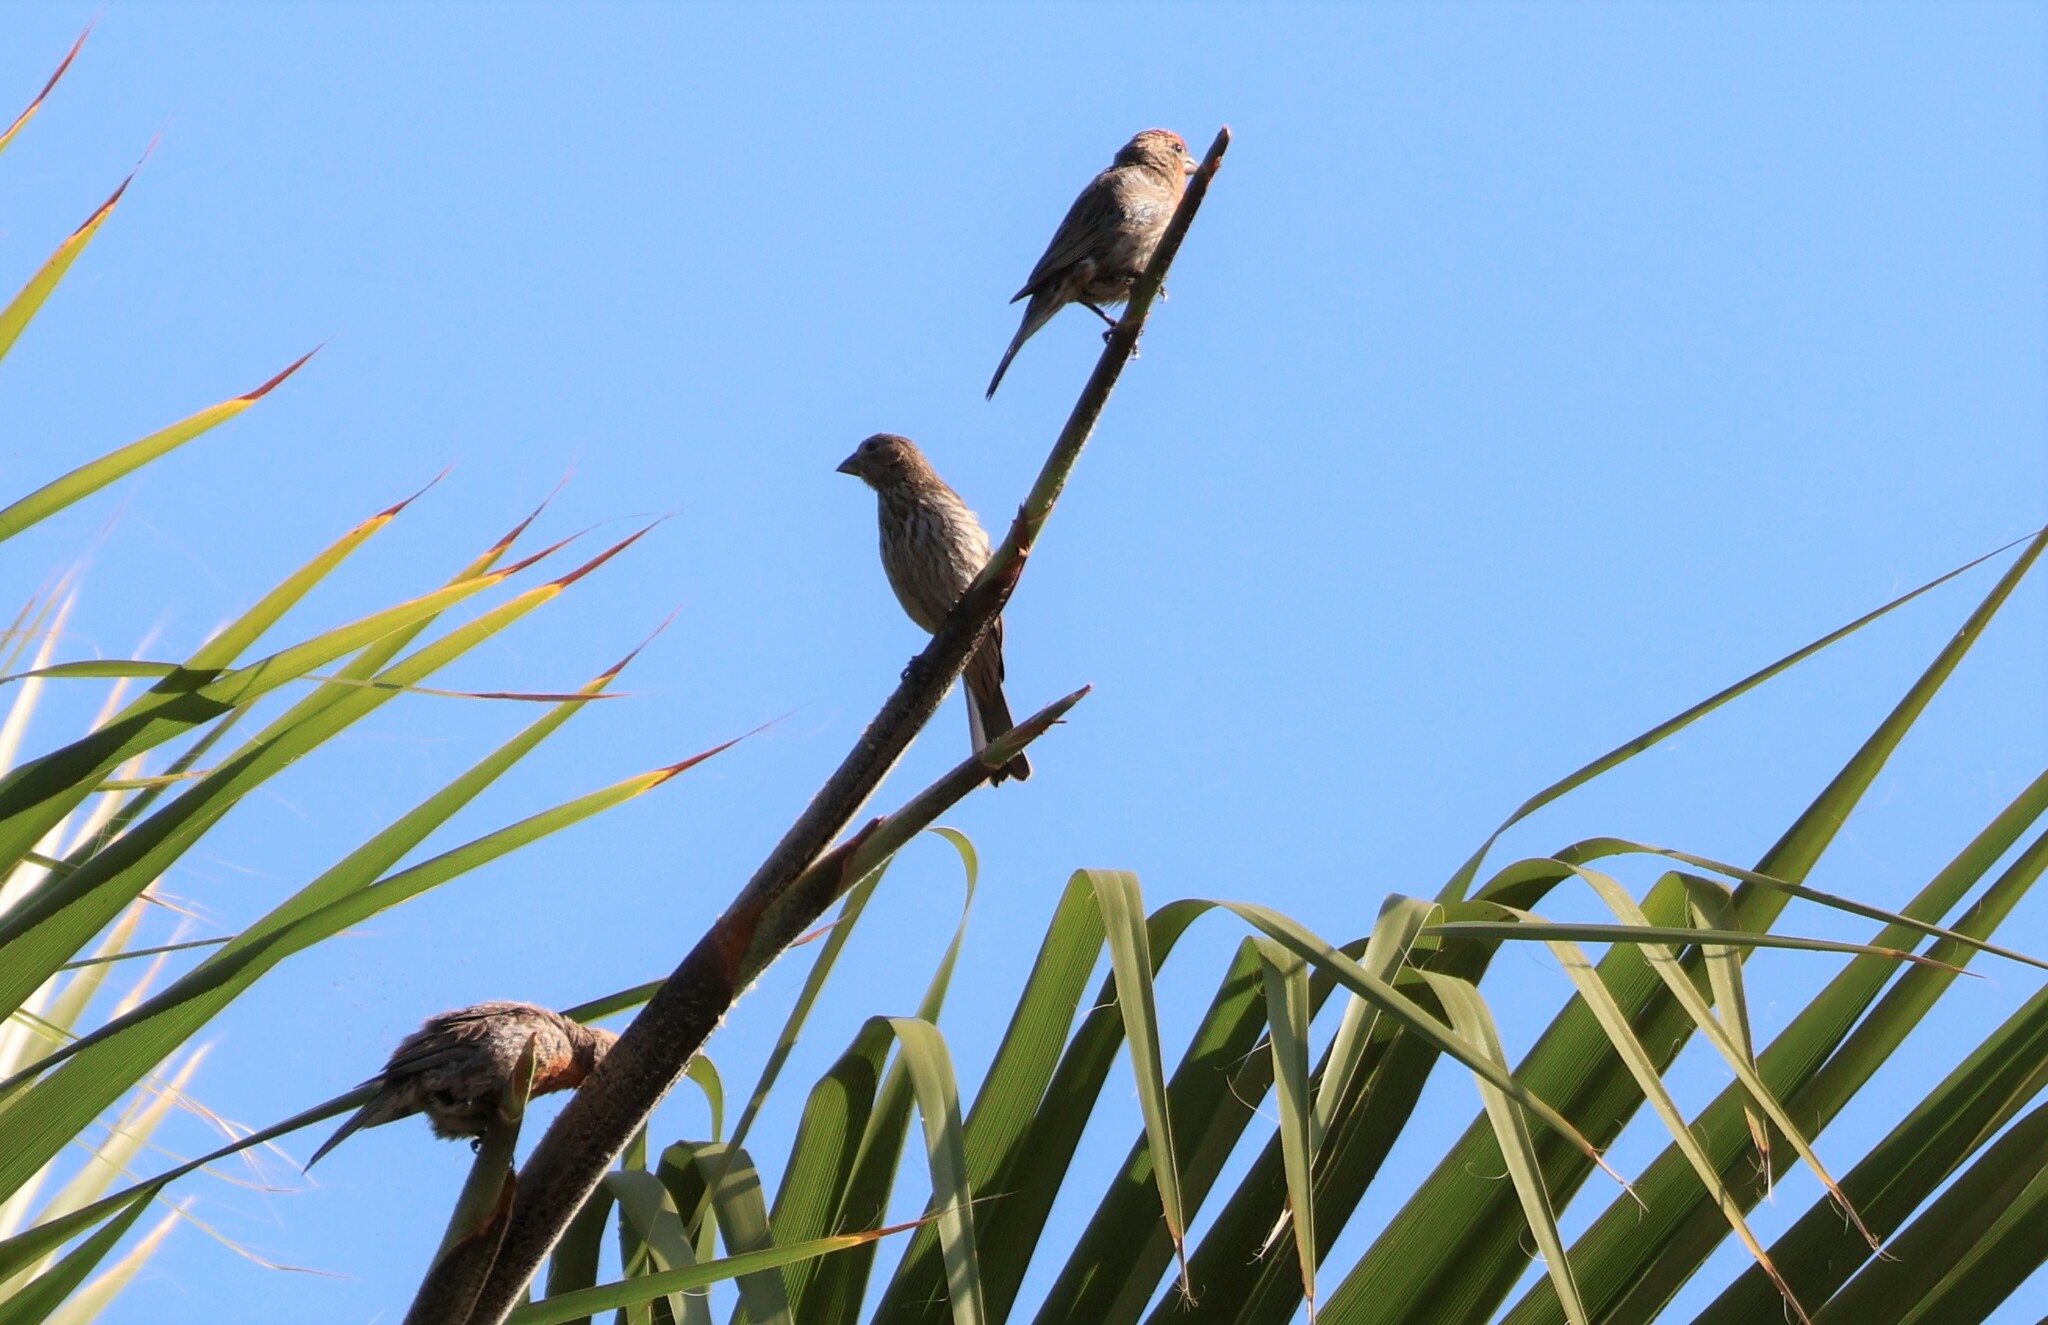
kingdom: Animalia
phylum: Chordata
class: Aves
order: Passeriformes
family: Fringillidae
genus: Haemorhous
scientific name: Haemorhous mexicanus
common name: House finch
